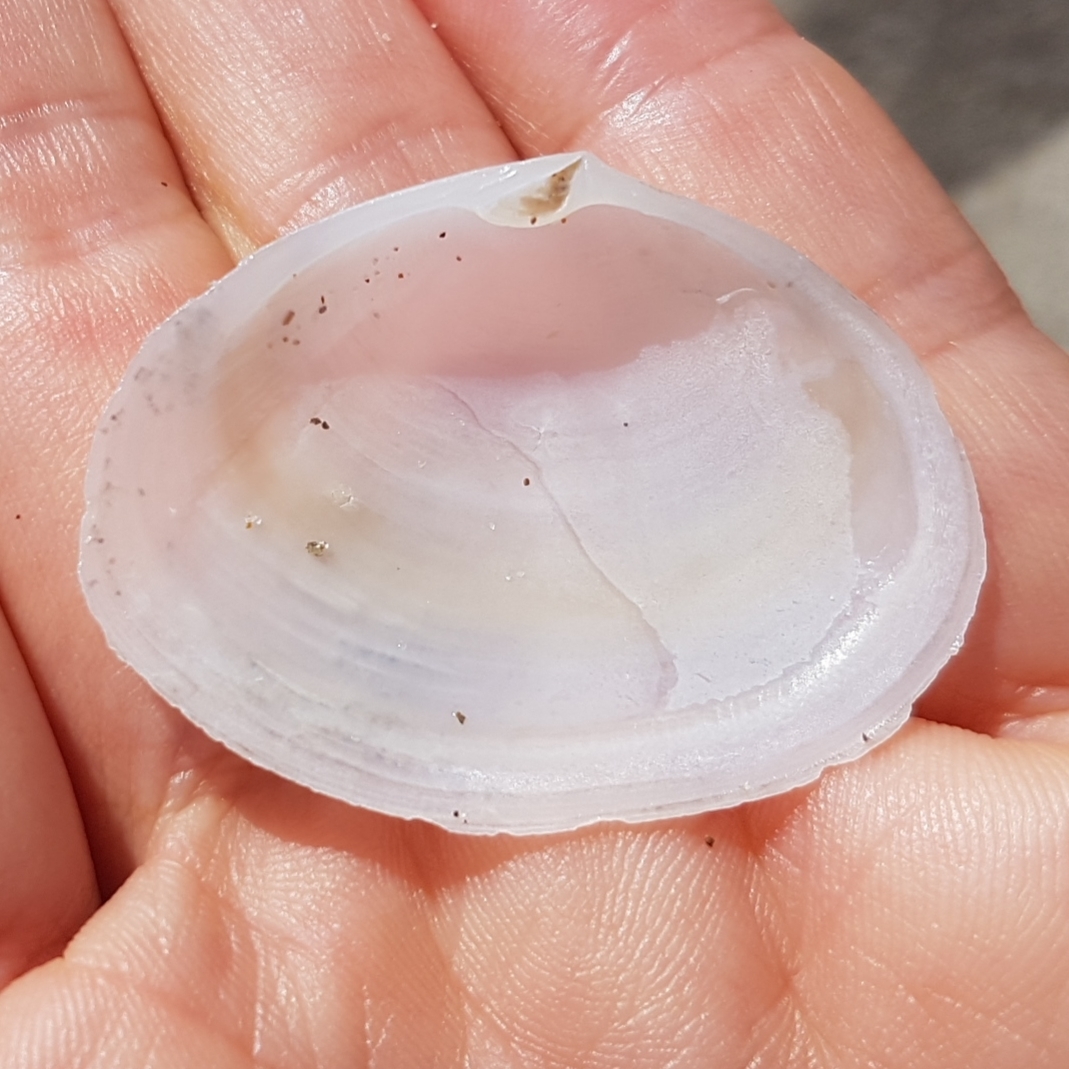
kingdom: Animalia
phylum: Mollusca
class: Bivalvia
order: Cardiida
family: Semelidae
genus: Scrobicularia
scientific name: Scrobicularia plana
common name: Peppery furrow shell
